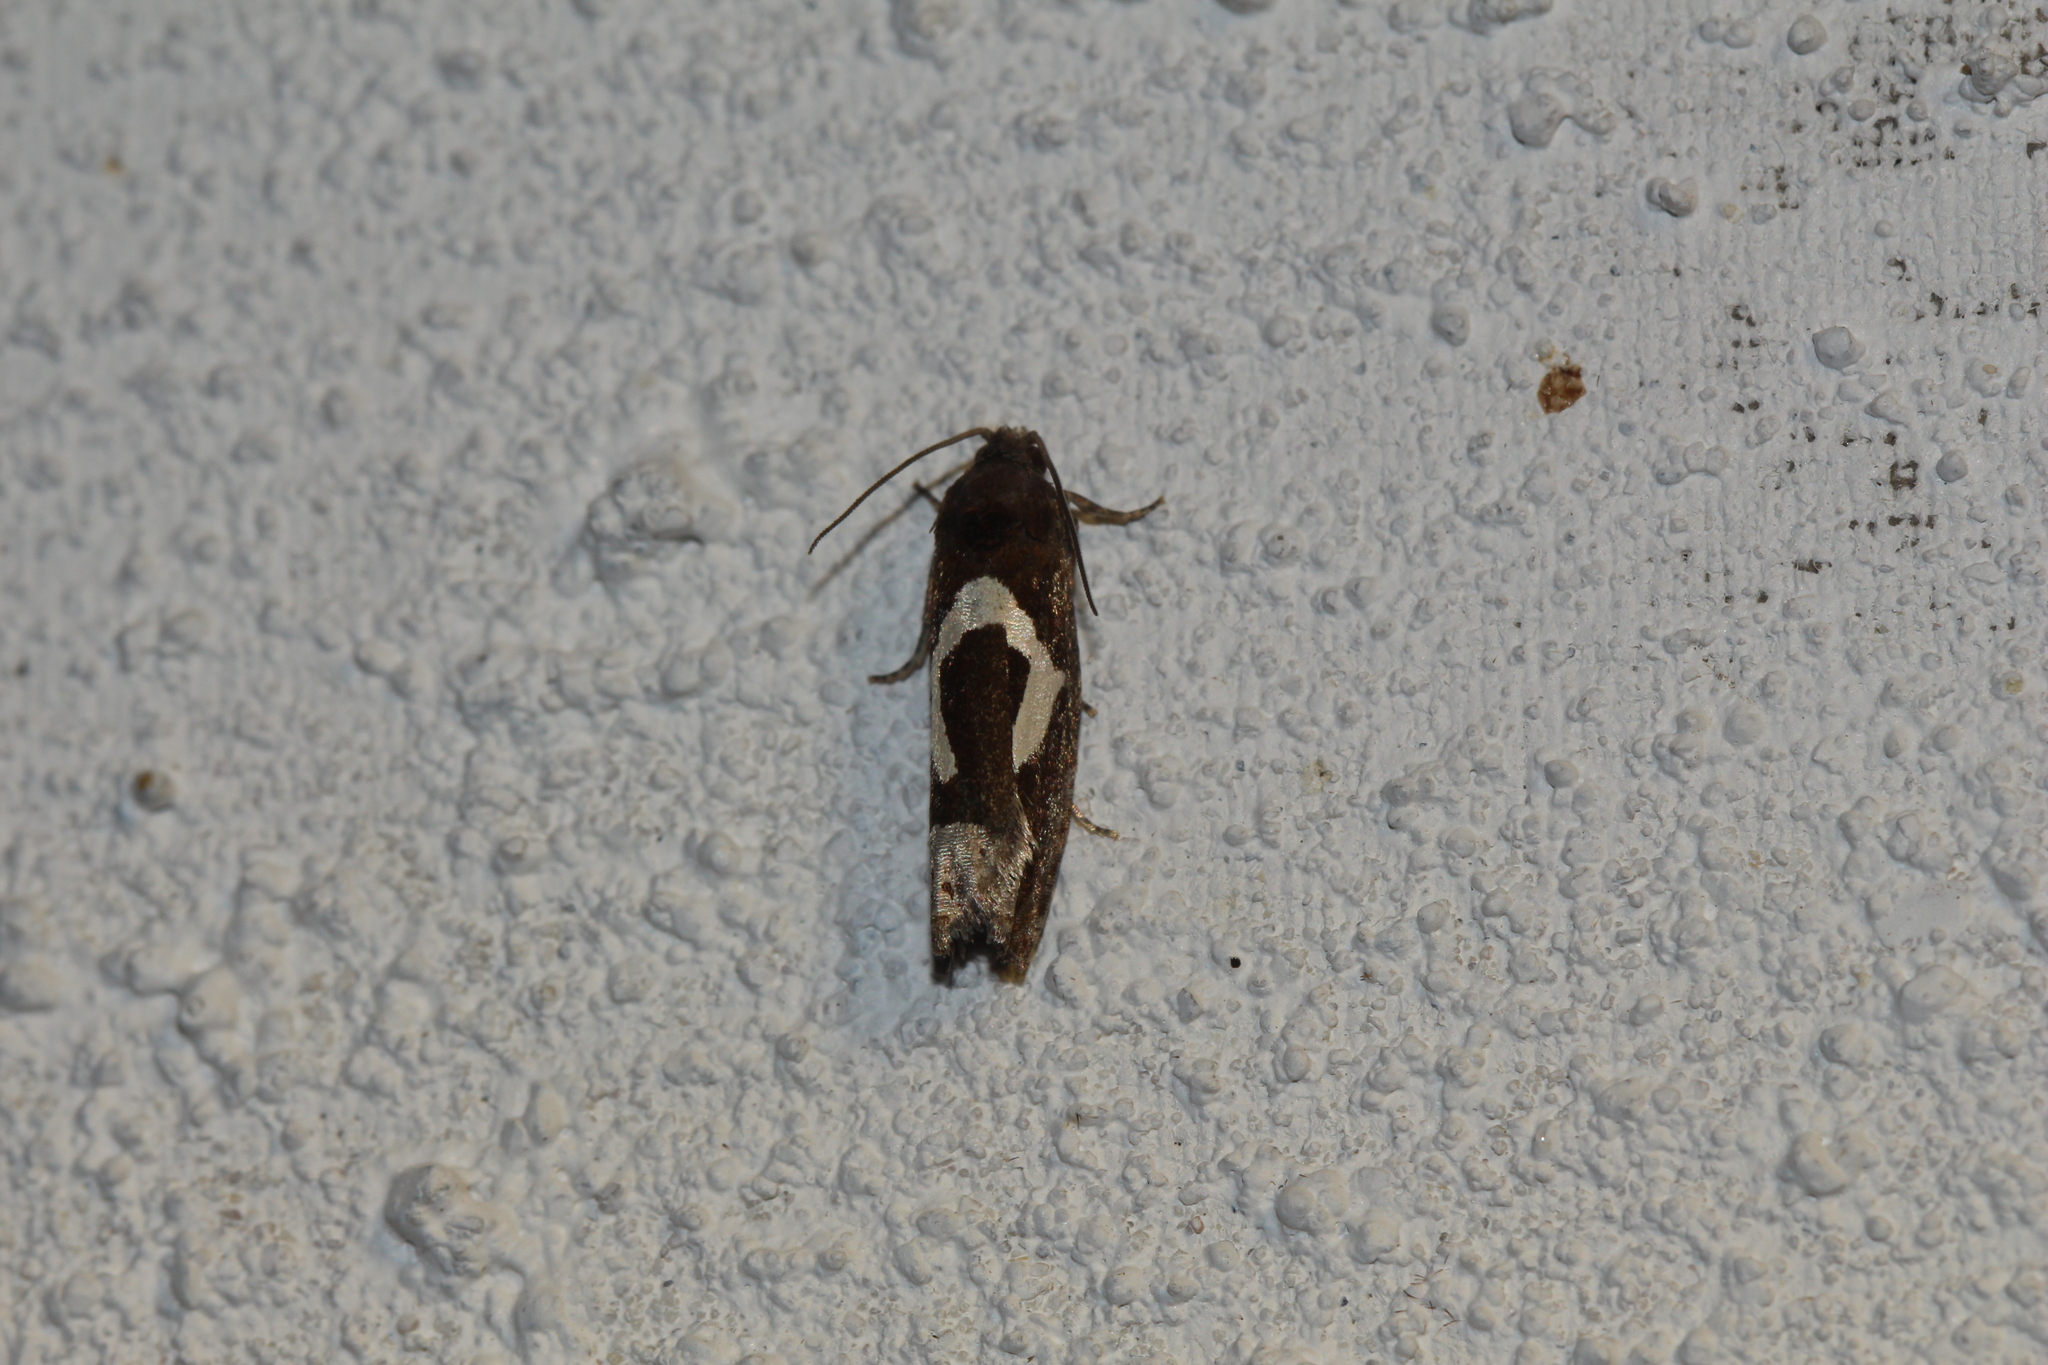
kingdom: Animalia
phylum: Arthropoda
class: Insecta
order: Lepidoptera
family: Tortricidae
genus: Epiblema
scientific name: Epiblema foenella
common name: White-foot bell
